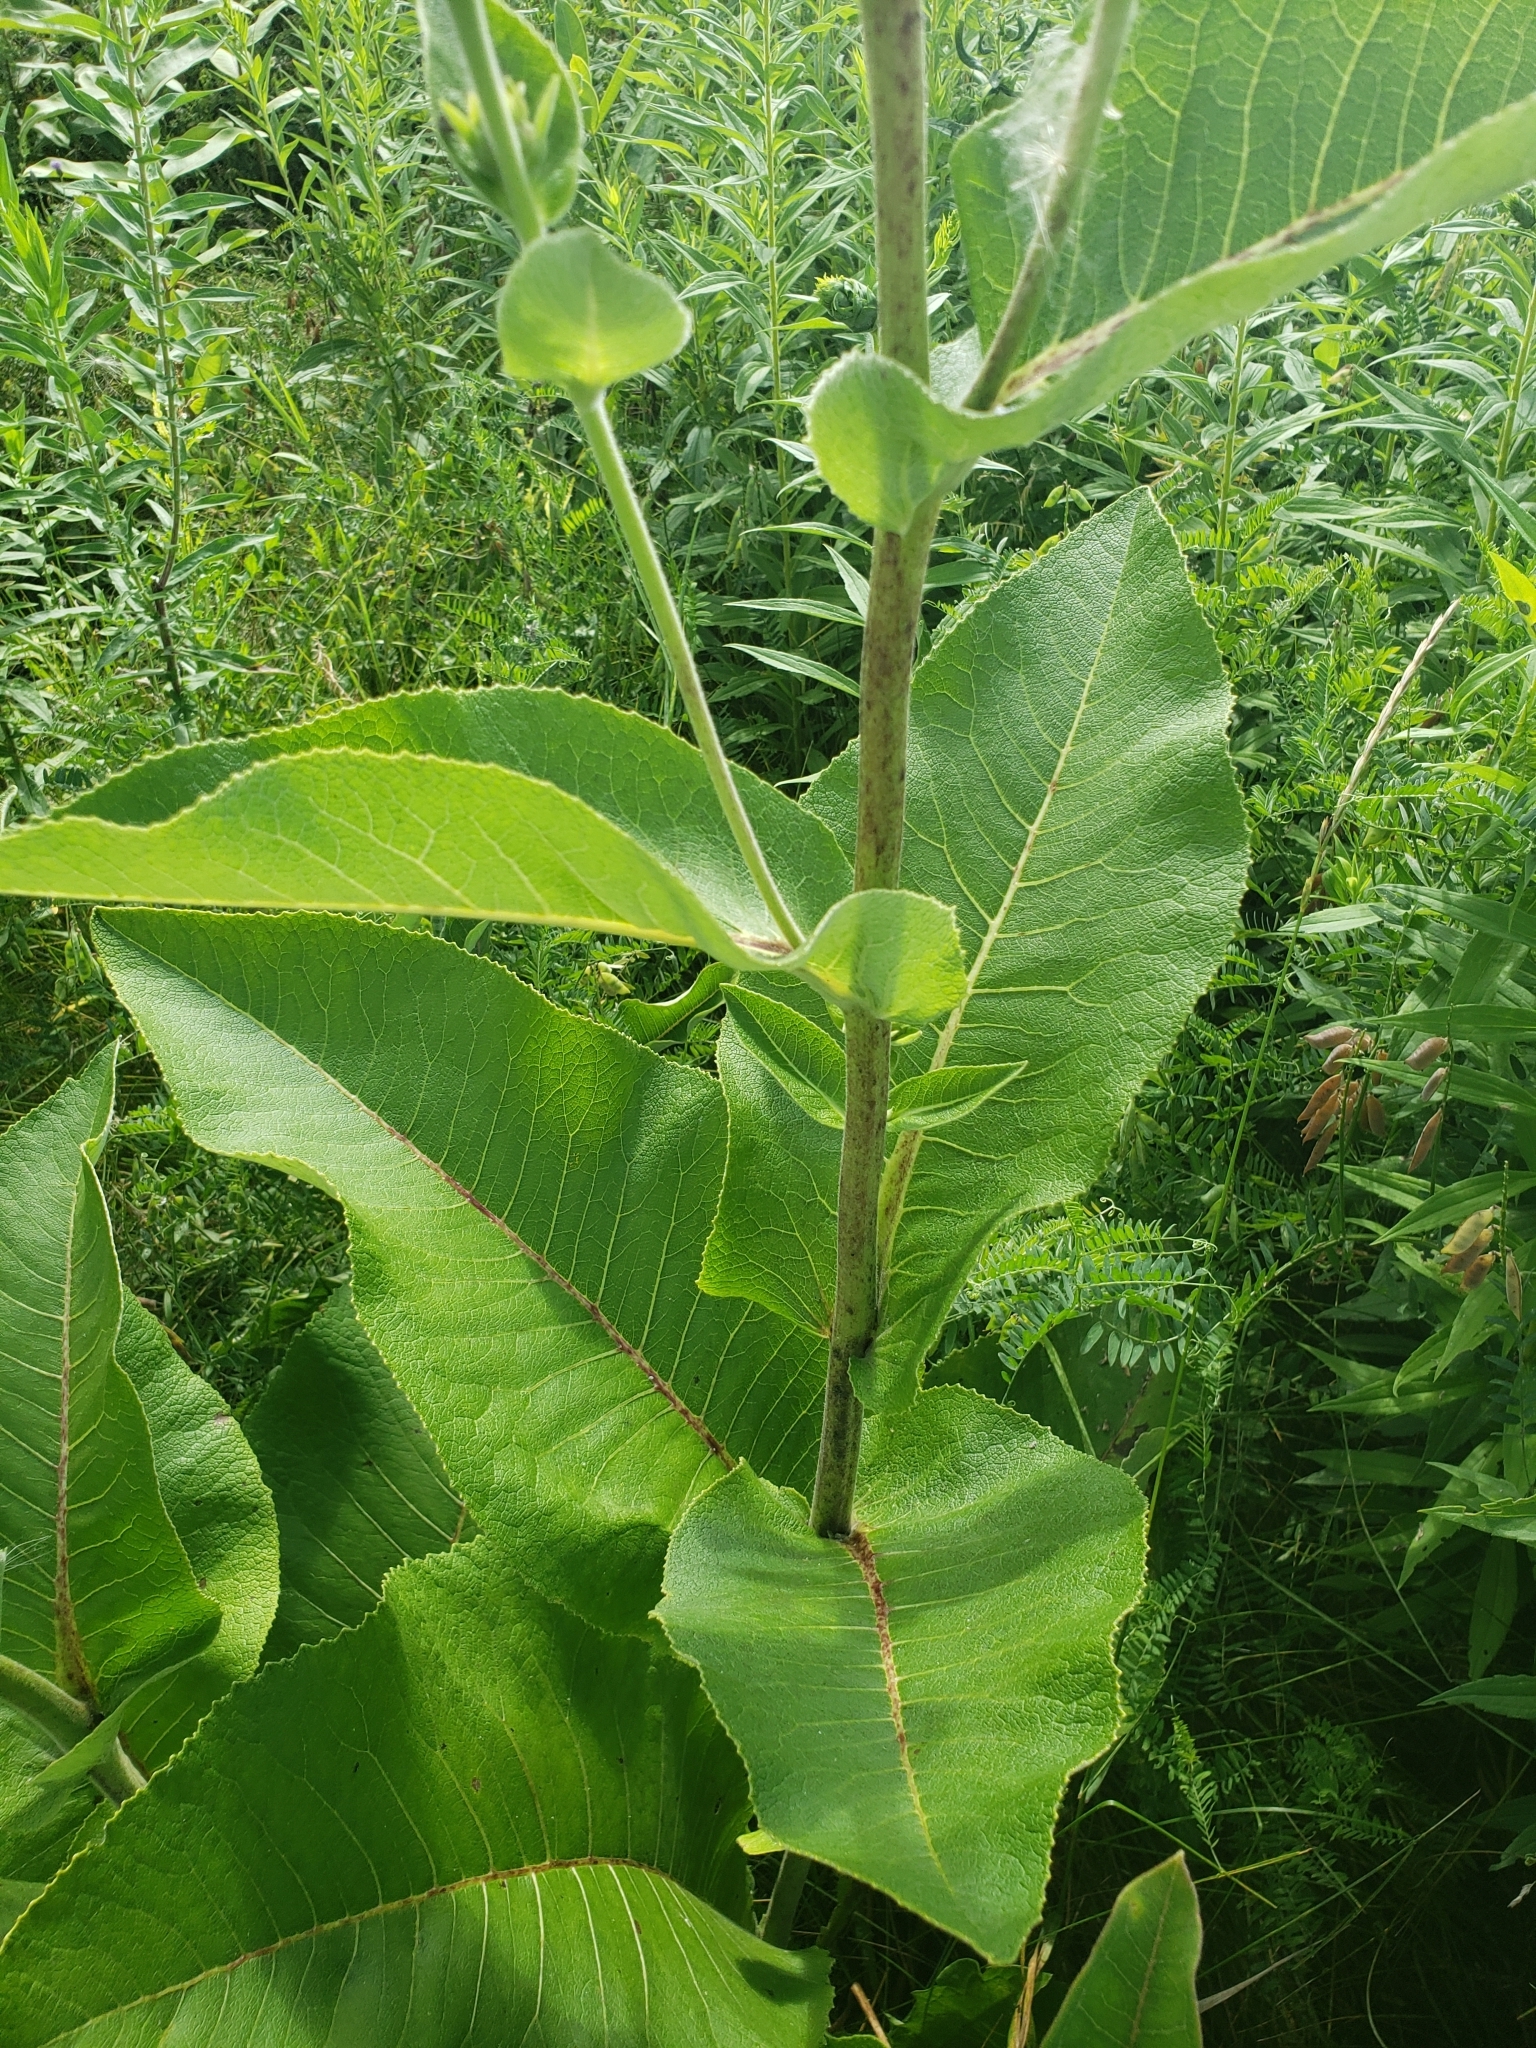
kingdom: Plantae
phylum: Tracheophyta
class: Magnoliopsida
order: Asterales
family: Asteraceae
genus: Inula
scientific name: Inula helenium
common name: Elecampane
